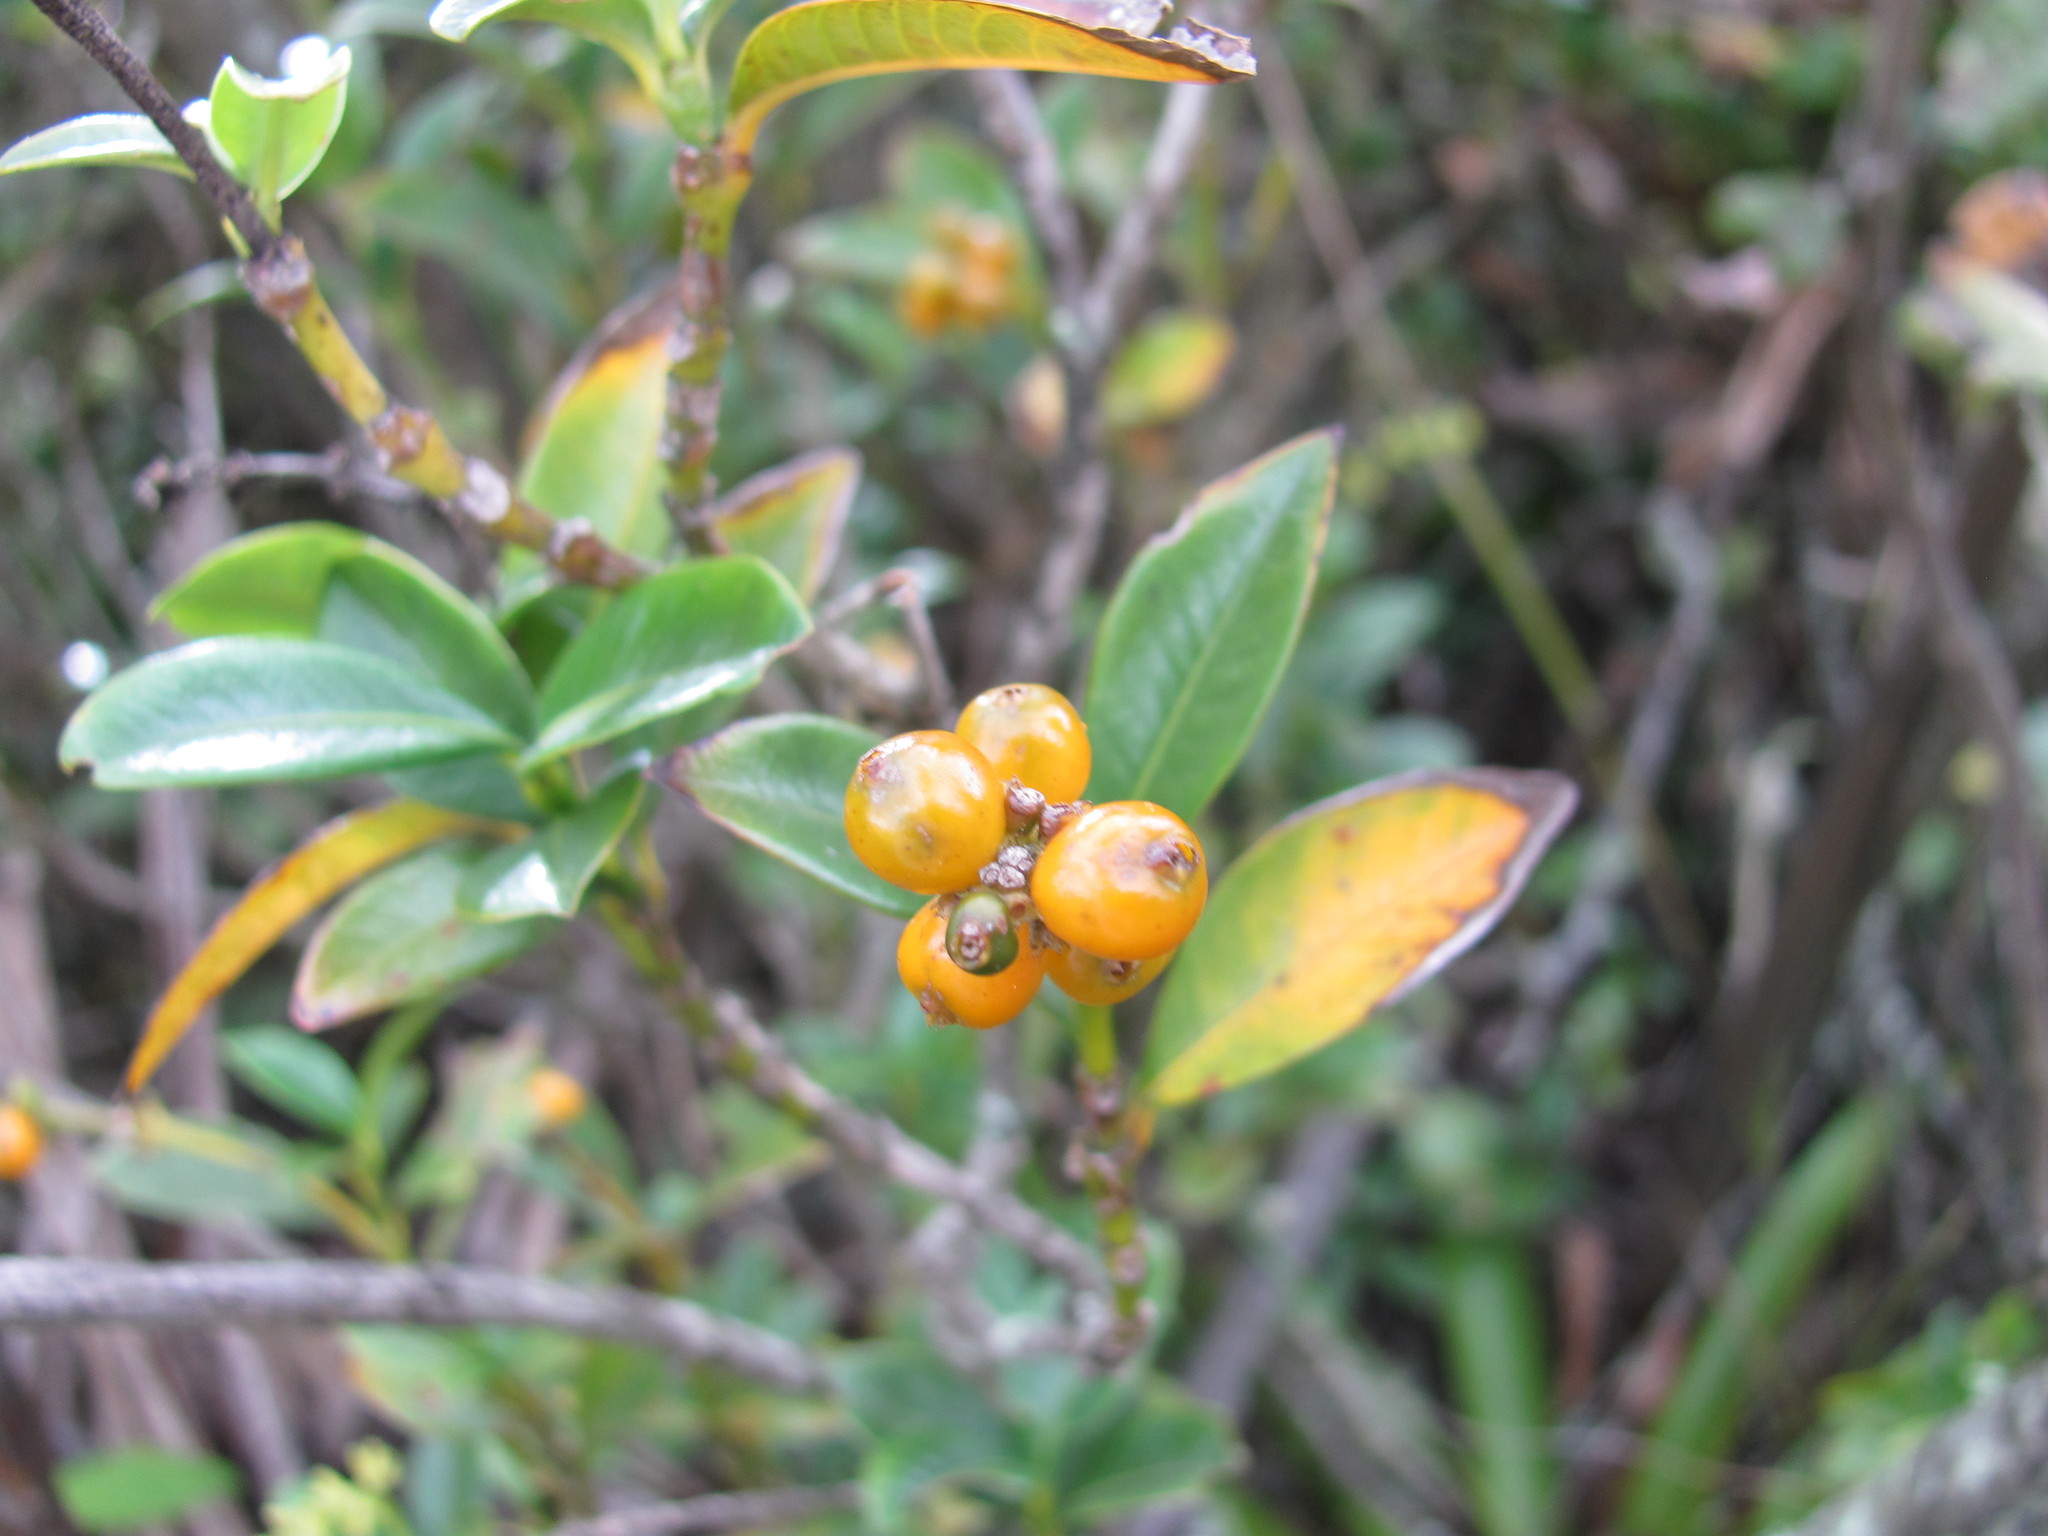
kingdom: Plantae
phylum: Tracheophyta
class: Magnoliopsida
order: Gentianales
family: Rubiaceae
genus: Palicourea
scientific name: Palicourea boqueronensis
